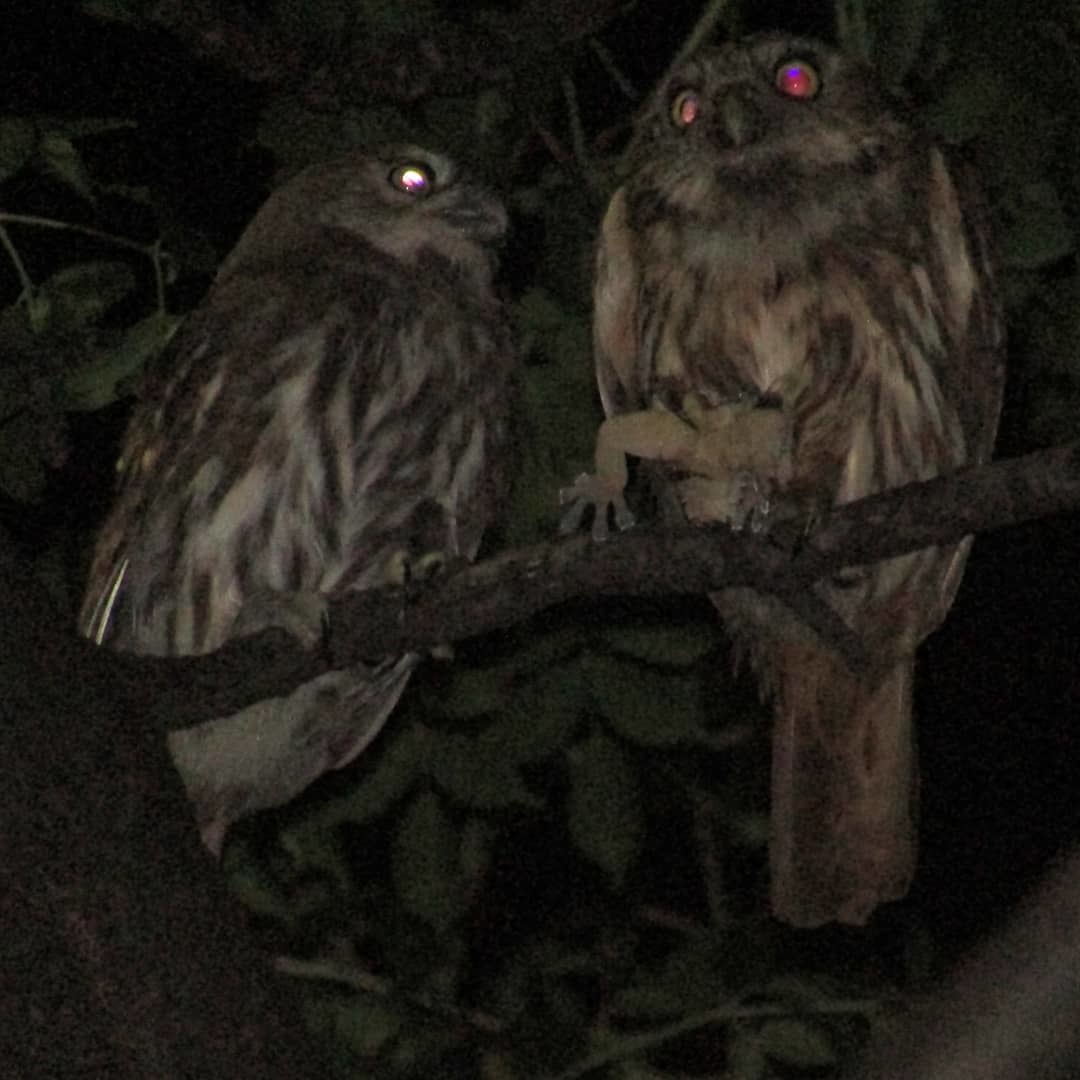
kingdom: Animalia
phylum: Chordata
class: Aves
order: Strigiformes
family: Strigidae
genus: Glaucidium
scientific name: Glaucidium brasilianum
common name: Ferruginous pygmy-owl
